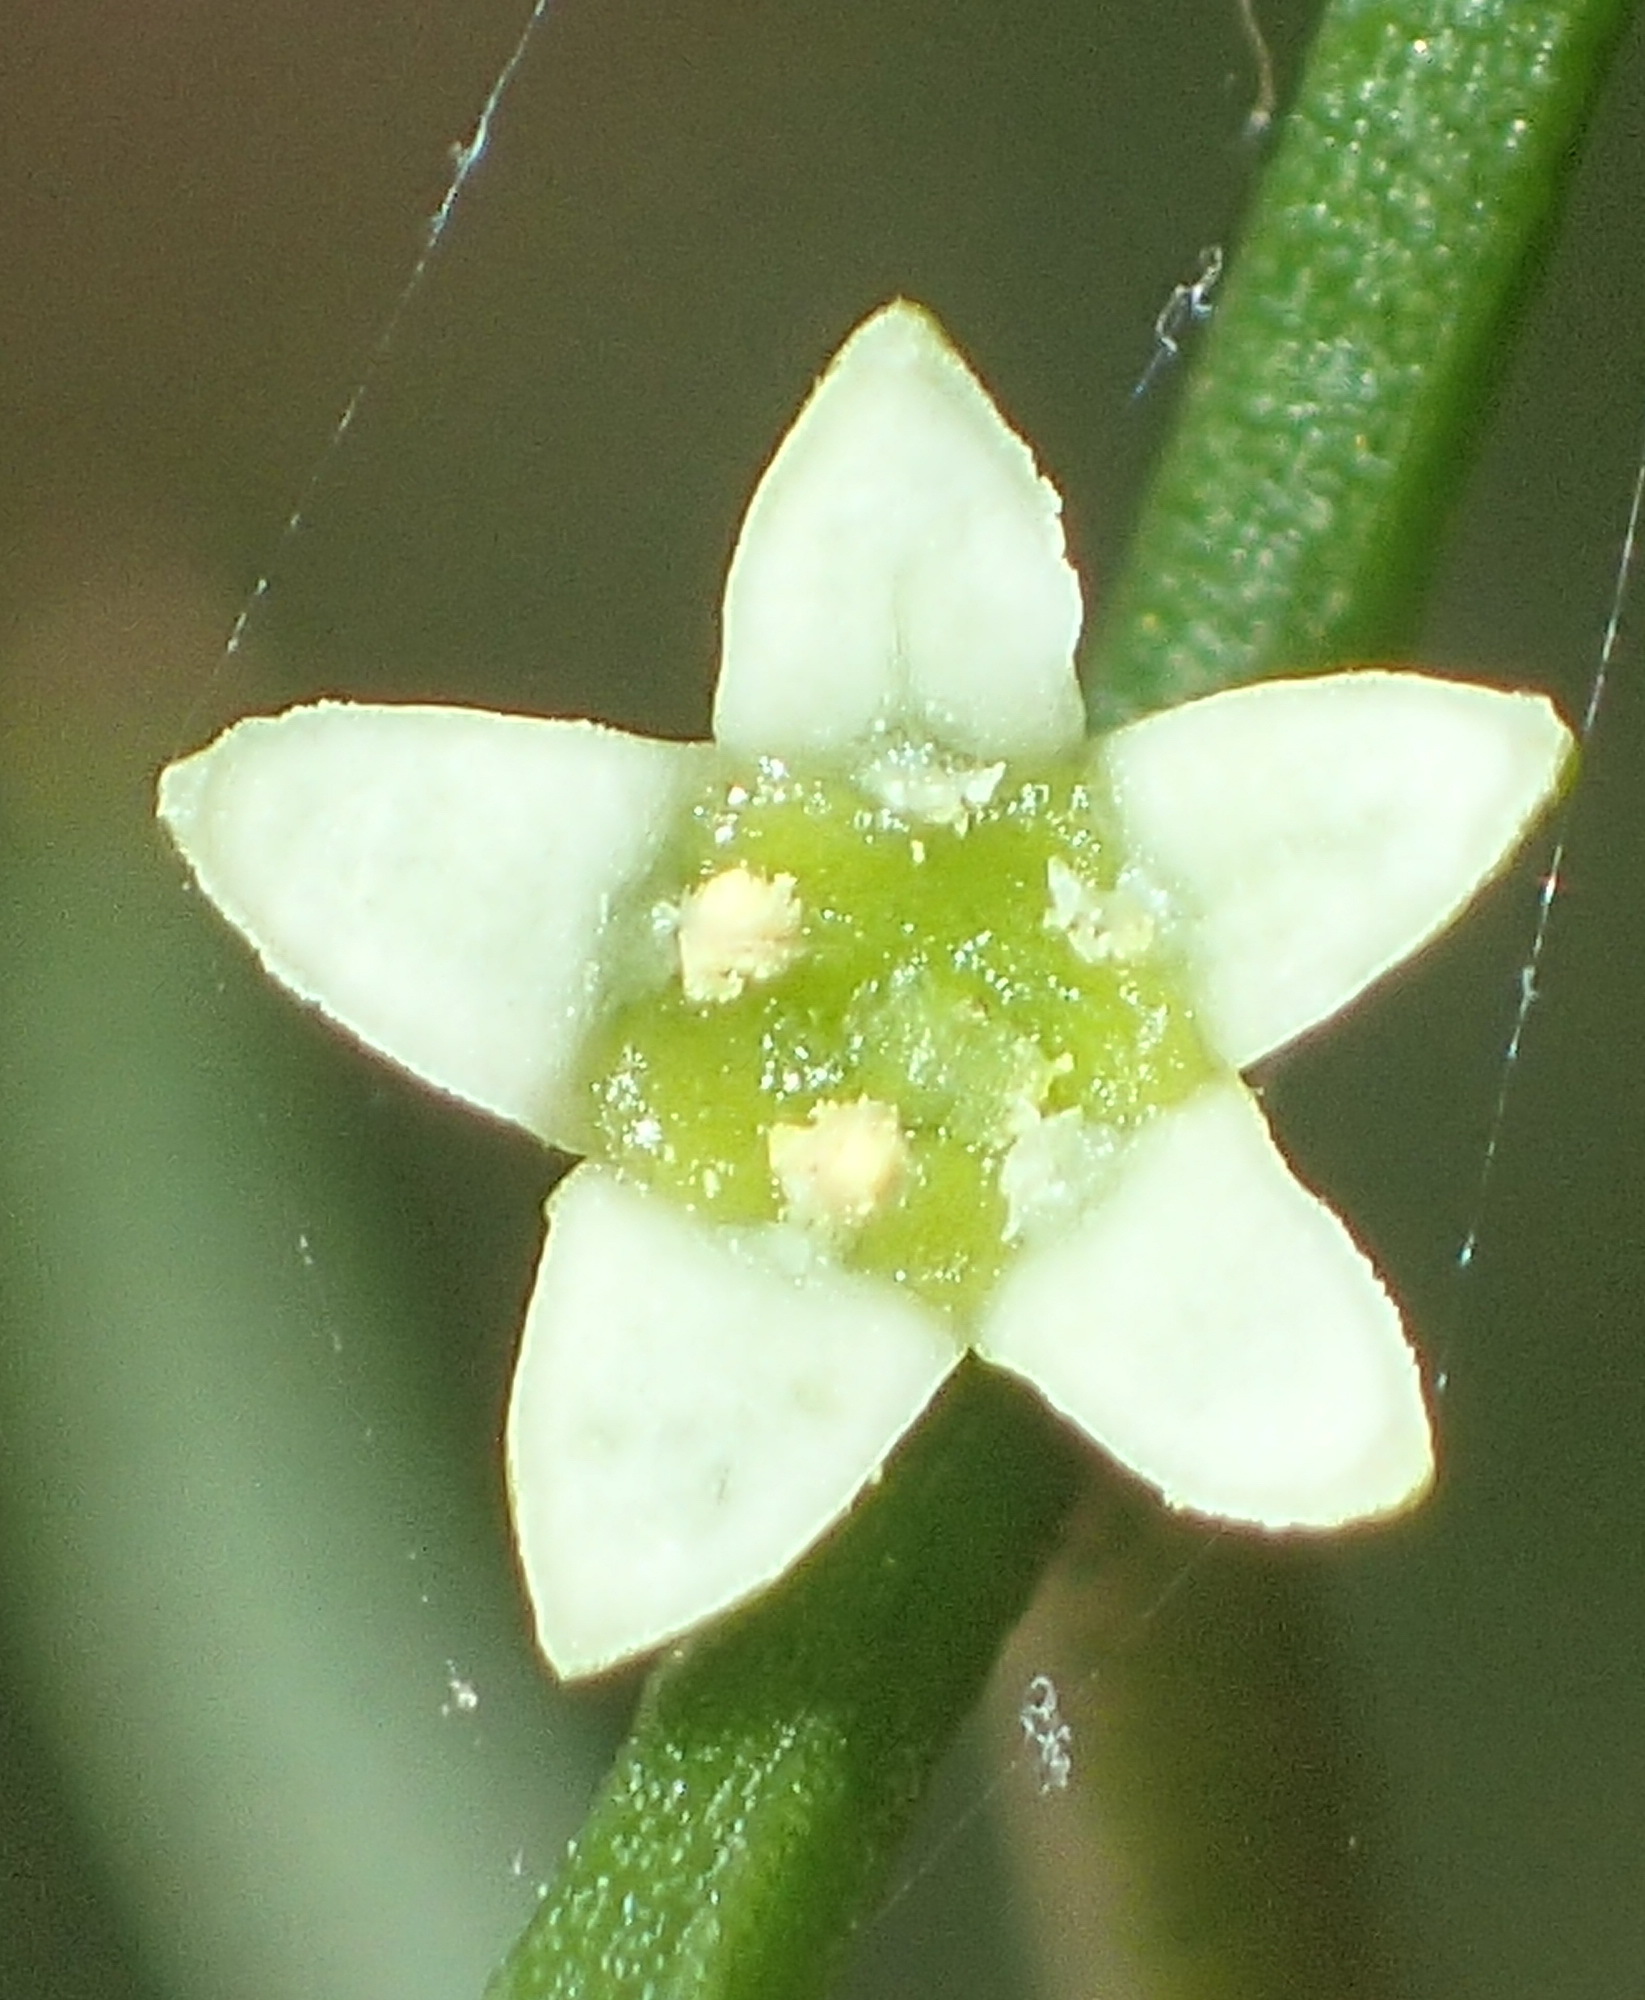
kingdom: Plantae
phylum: Tracheophyta
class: Magnoliopsida
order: Santalales
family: Thesiaceae
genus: Thesium
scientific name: Thesium scandens
